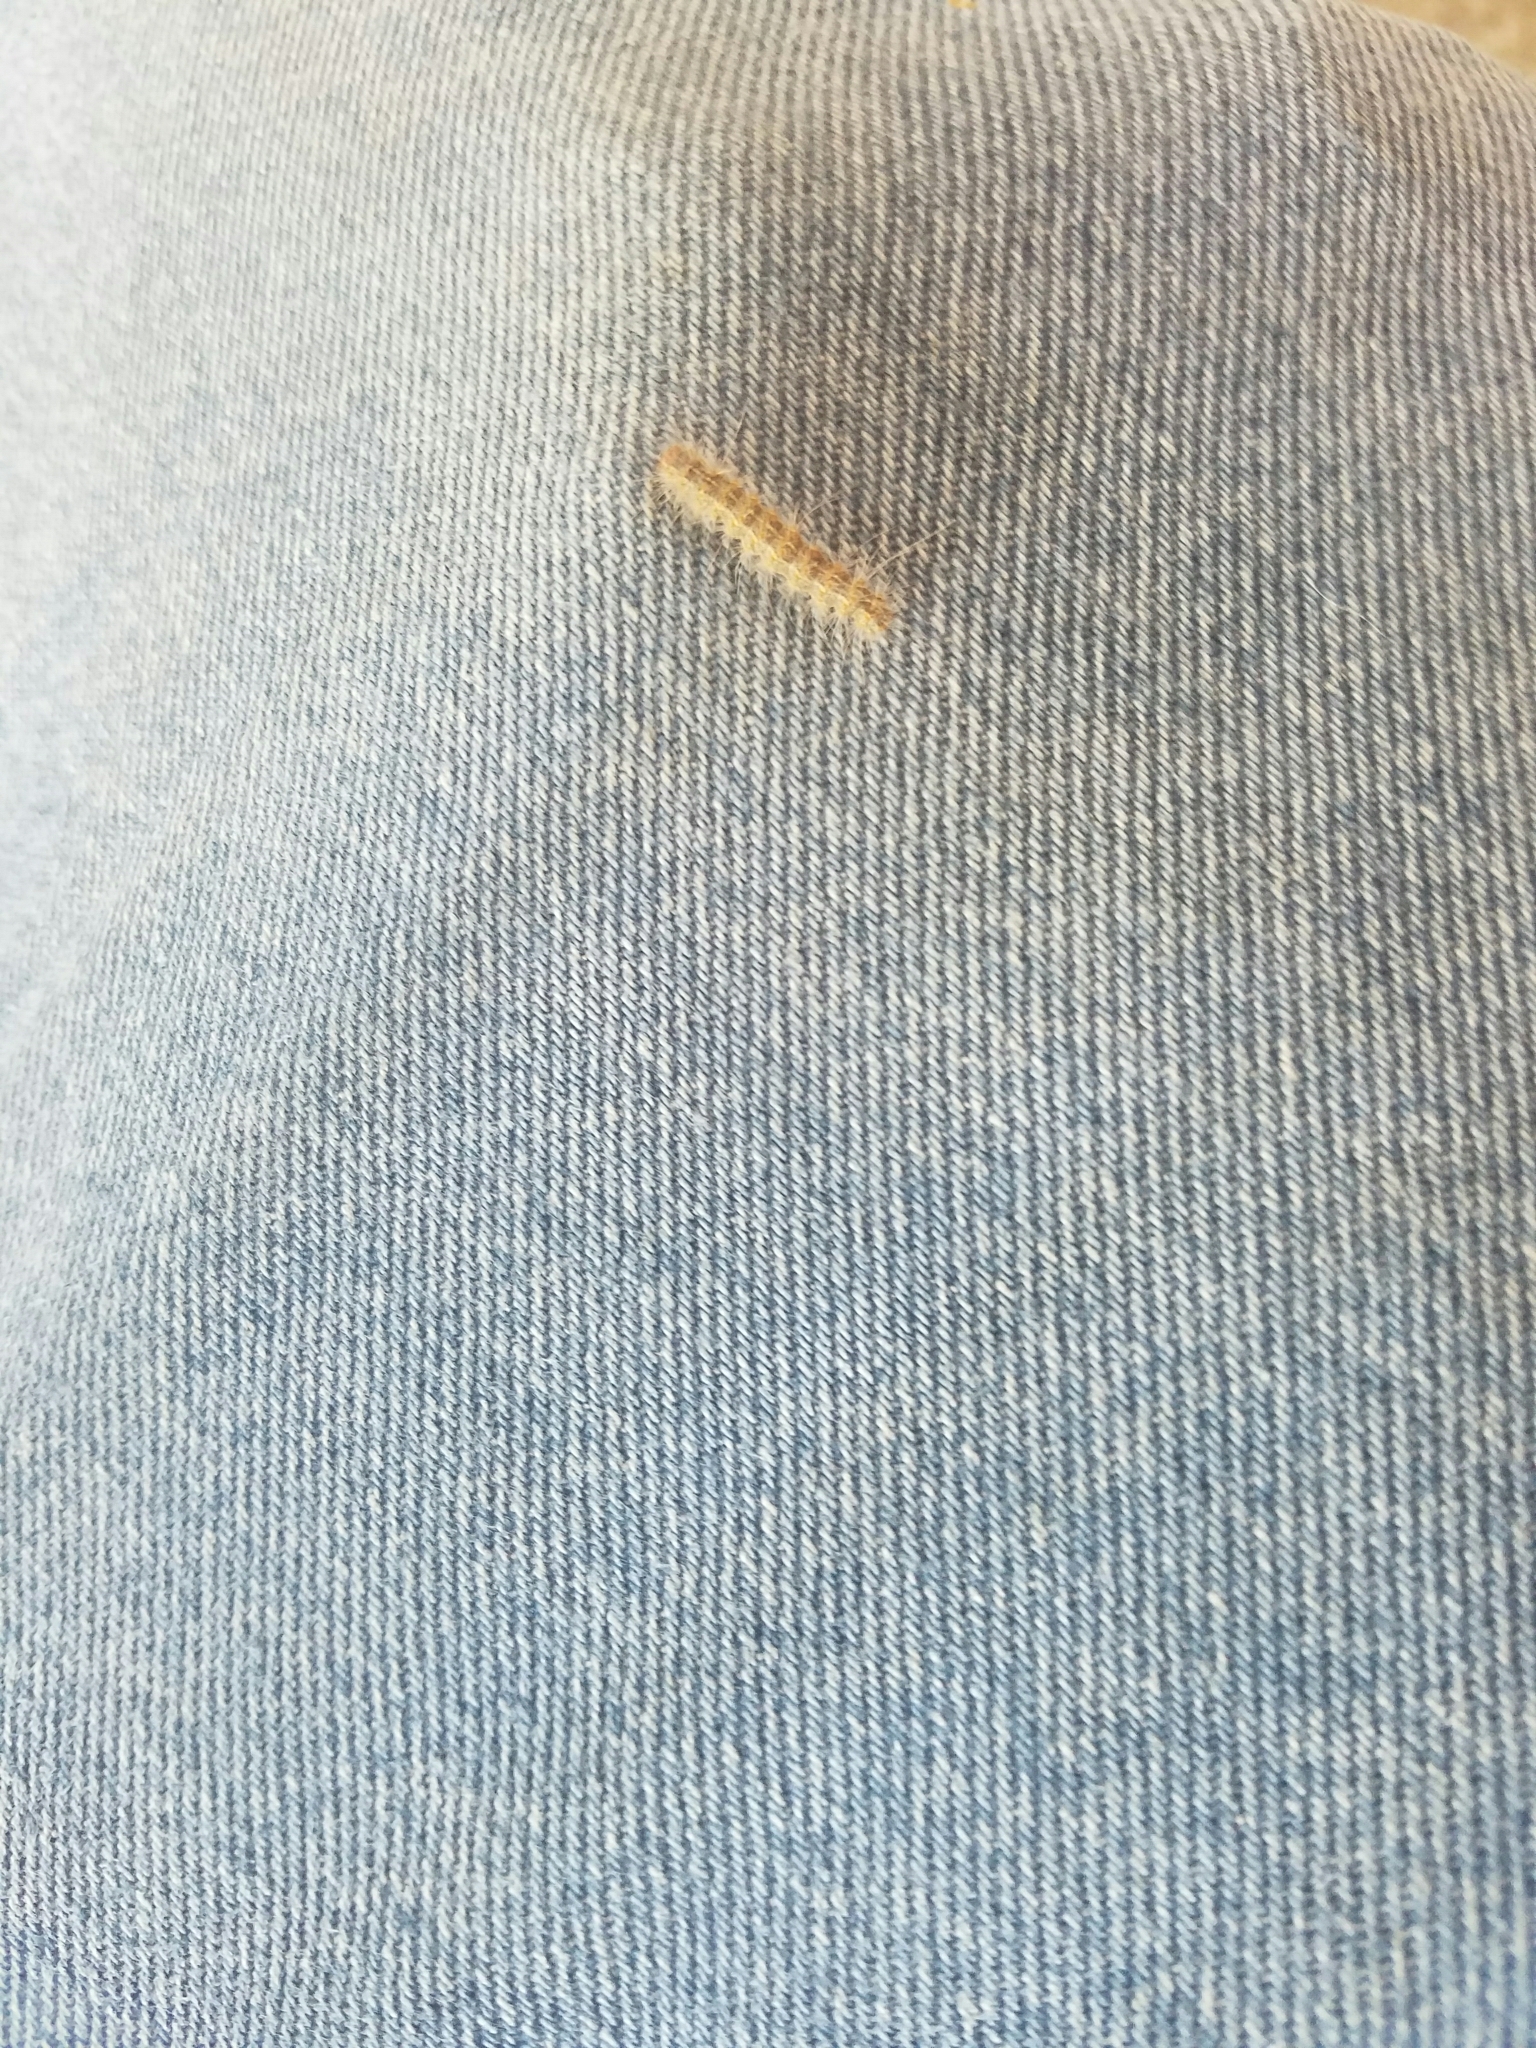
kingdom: Animalia
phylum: Arthropoda
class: Insecta
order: Lepidoptera
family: Erebidae
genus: Hyphantria
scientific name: Hyphantria cunea
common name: American white moth
